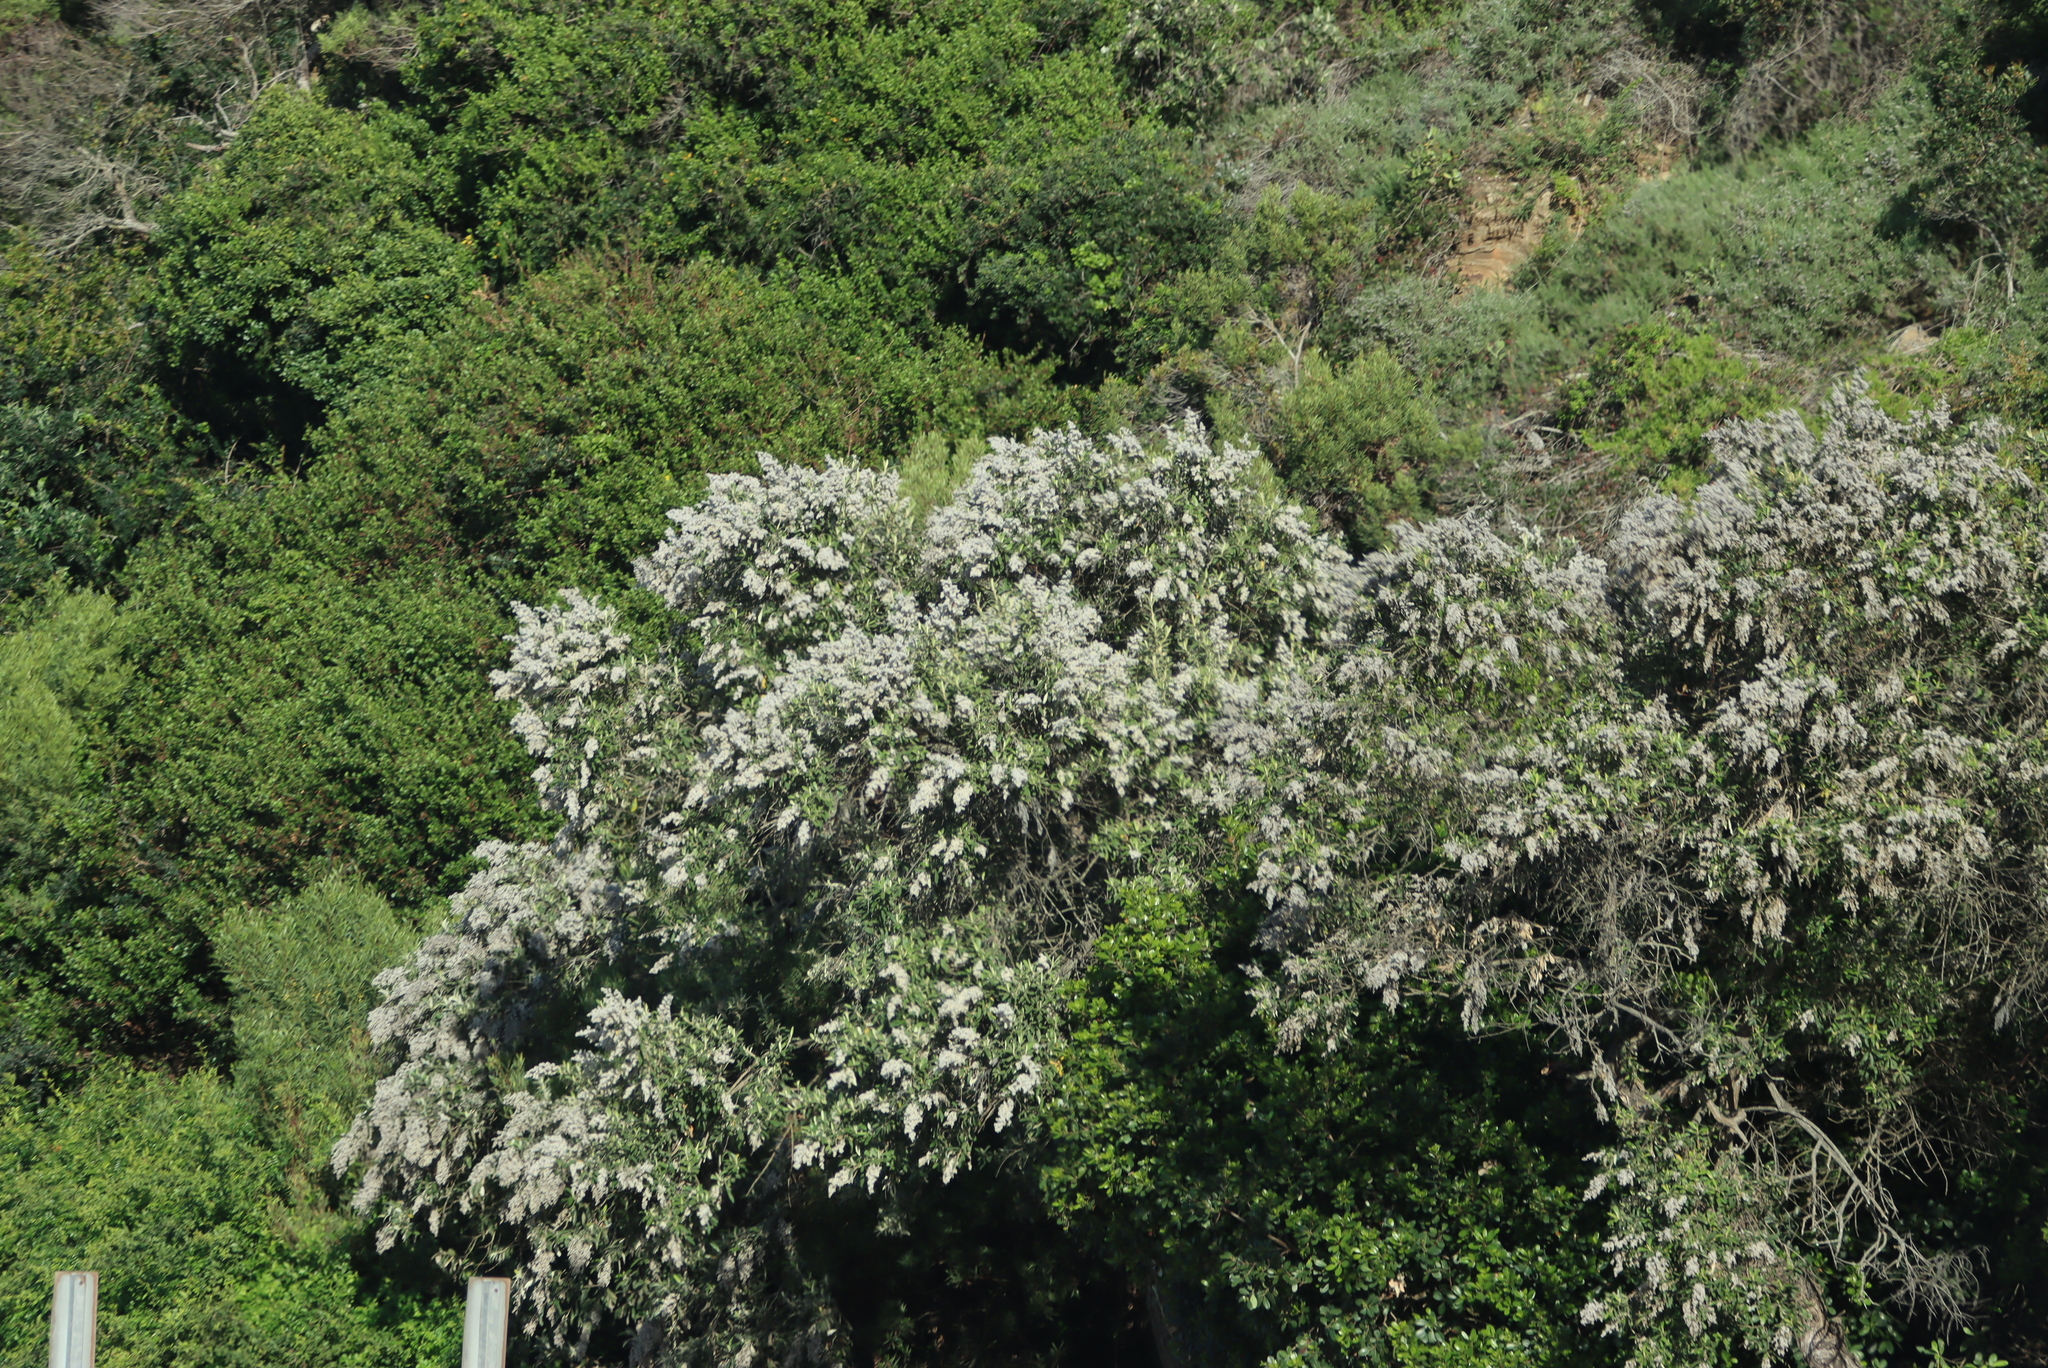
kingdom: Plantae
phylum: Tracheophyta
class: Magnoliopsida
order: Asterales
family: Asteraceae
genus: Tarchonanthus
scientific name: Tarchonanthus littoralis
